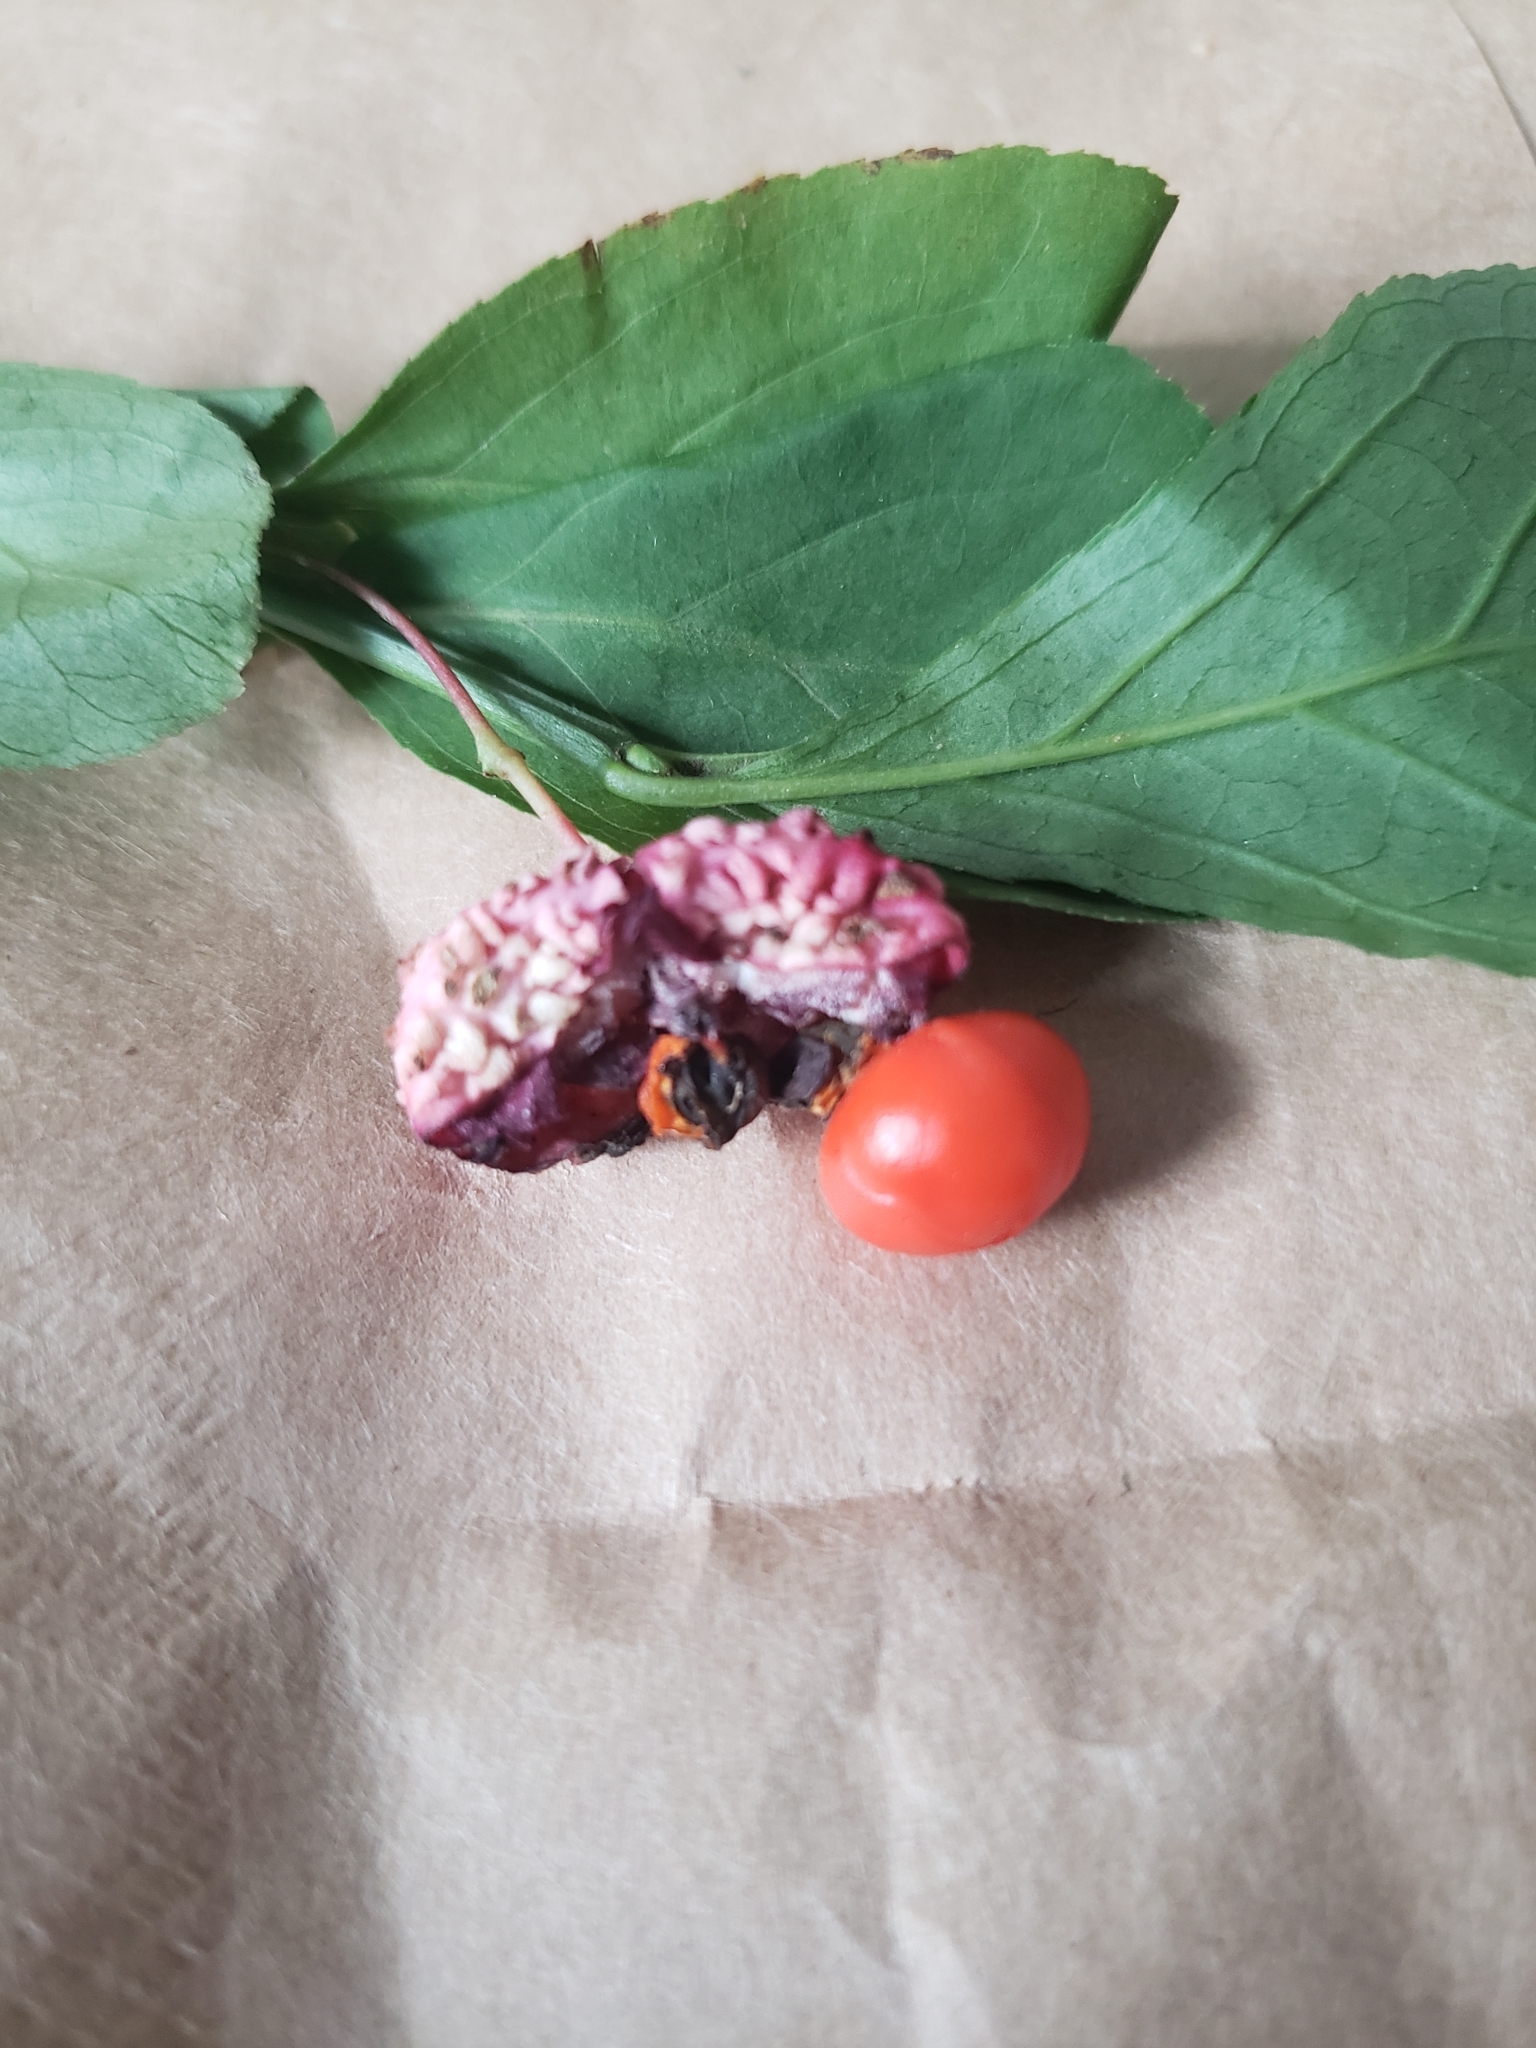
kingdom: Plantae
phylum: Tracheophyta
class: Magnoliopsida
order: Celastrales
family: Celastraceae
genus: Euonymus
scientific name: Euonymus obovatus
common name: Running strawberry-bush
